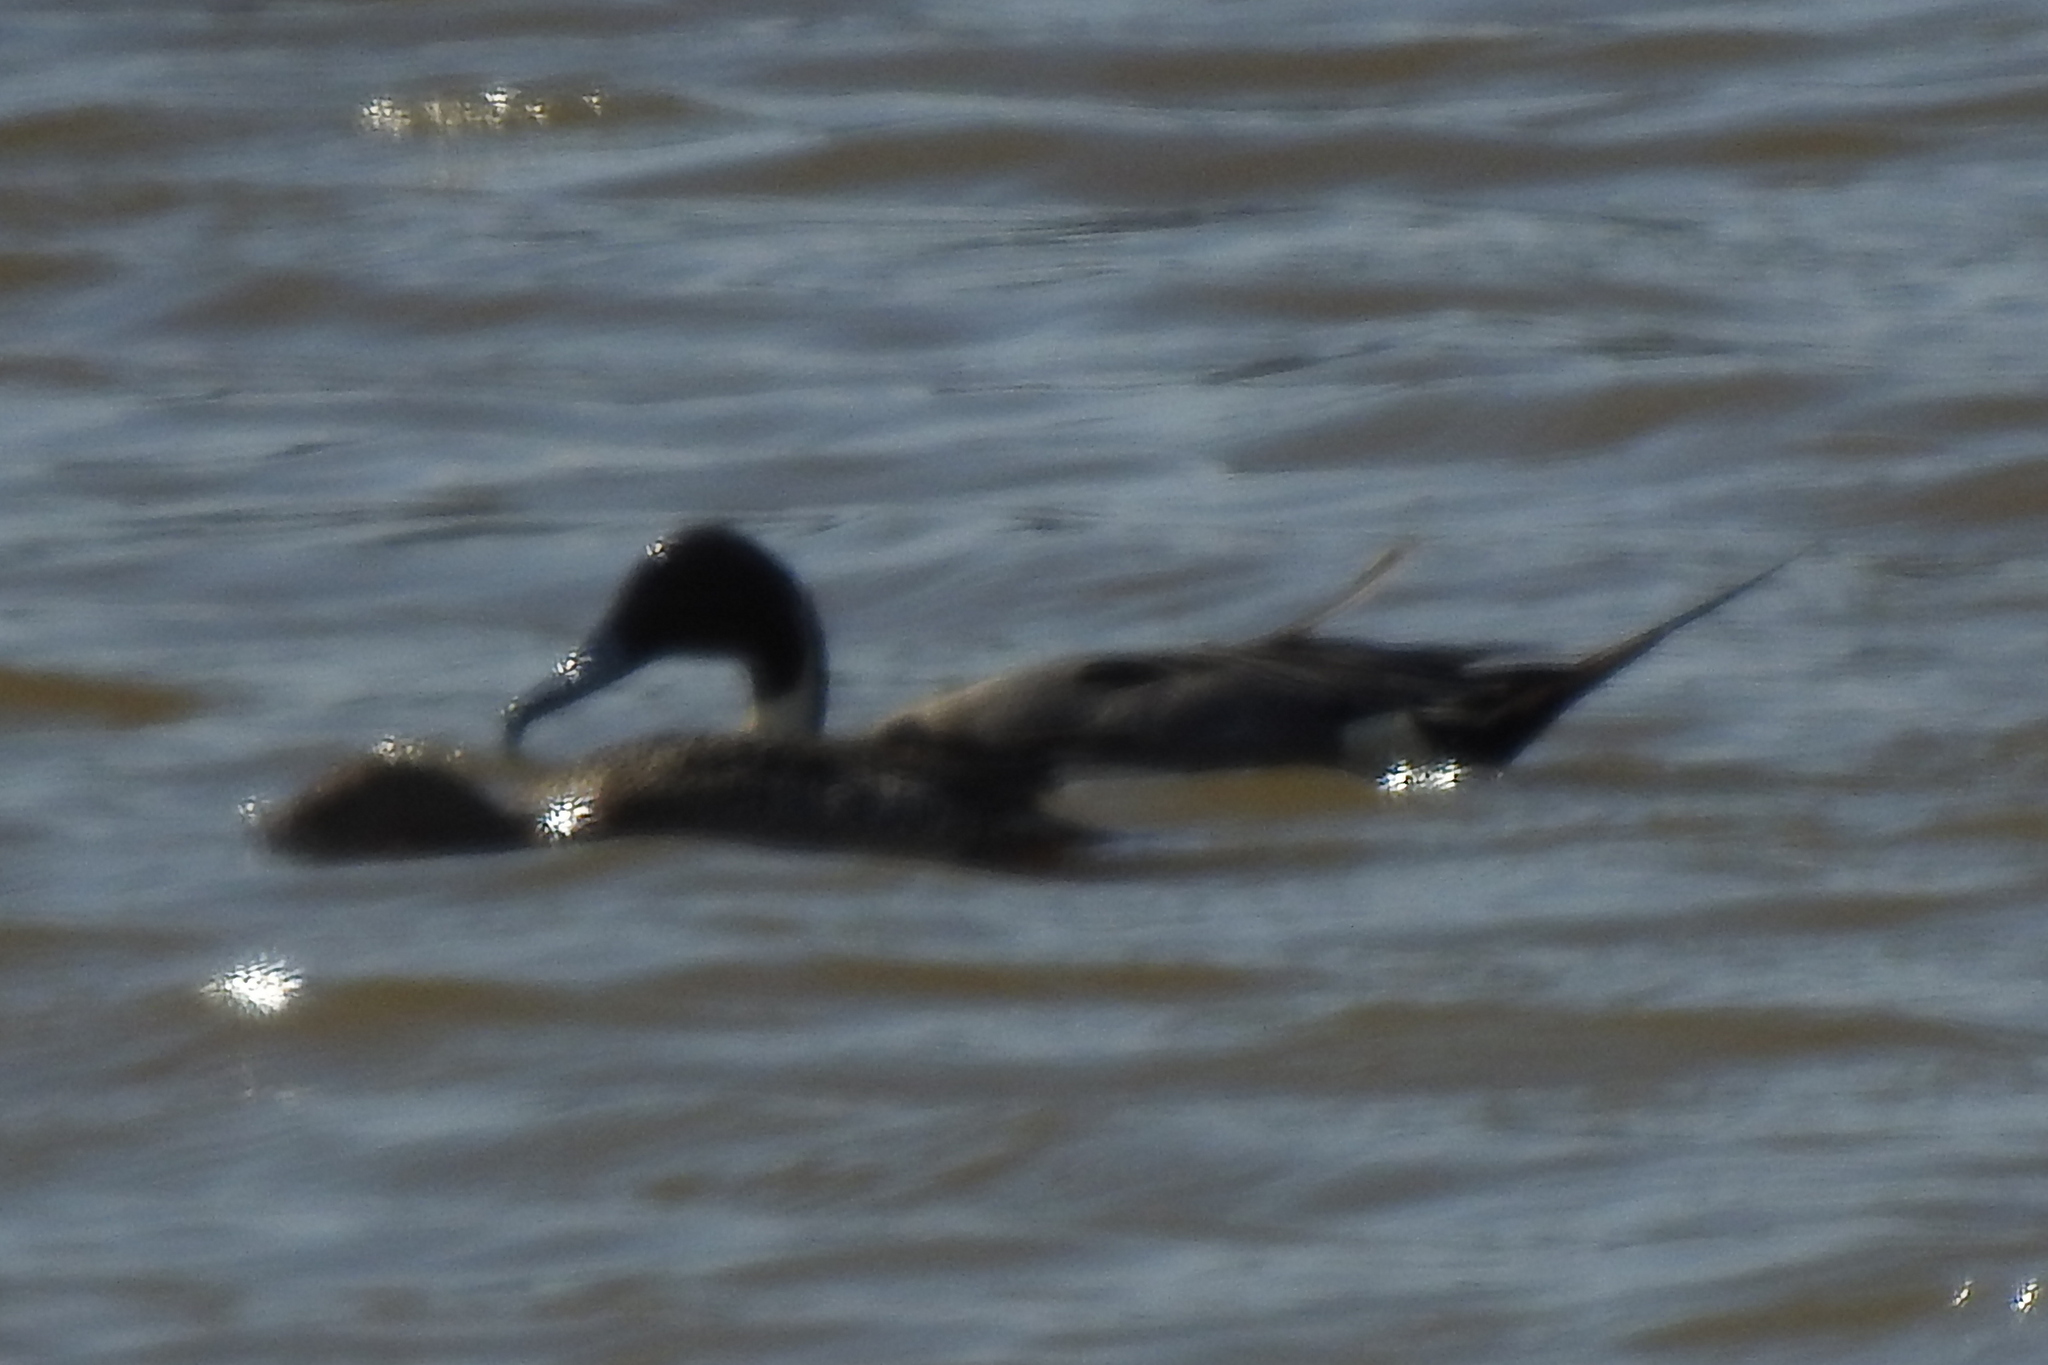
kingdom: Animalia
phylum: Chordata
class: Aves
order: Anseriformes
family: Anatidae
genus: Anas
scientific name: Anas acuta
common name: Northern pintail
